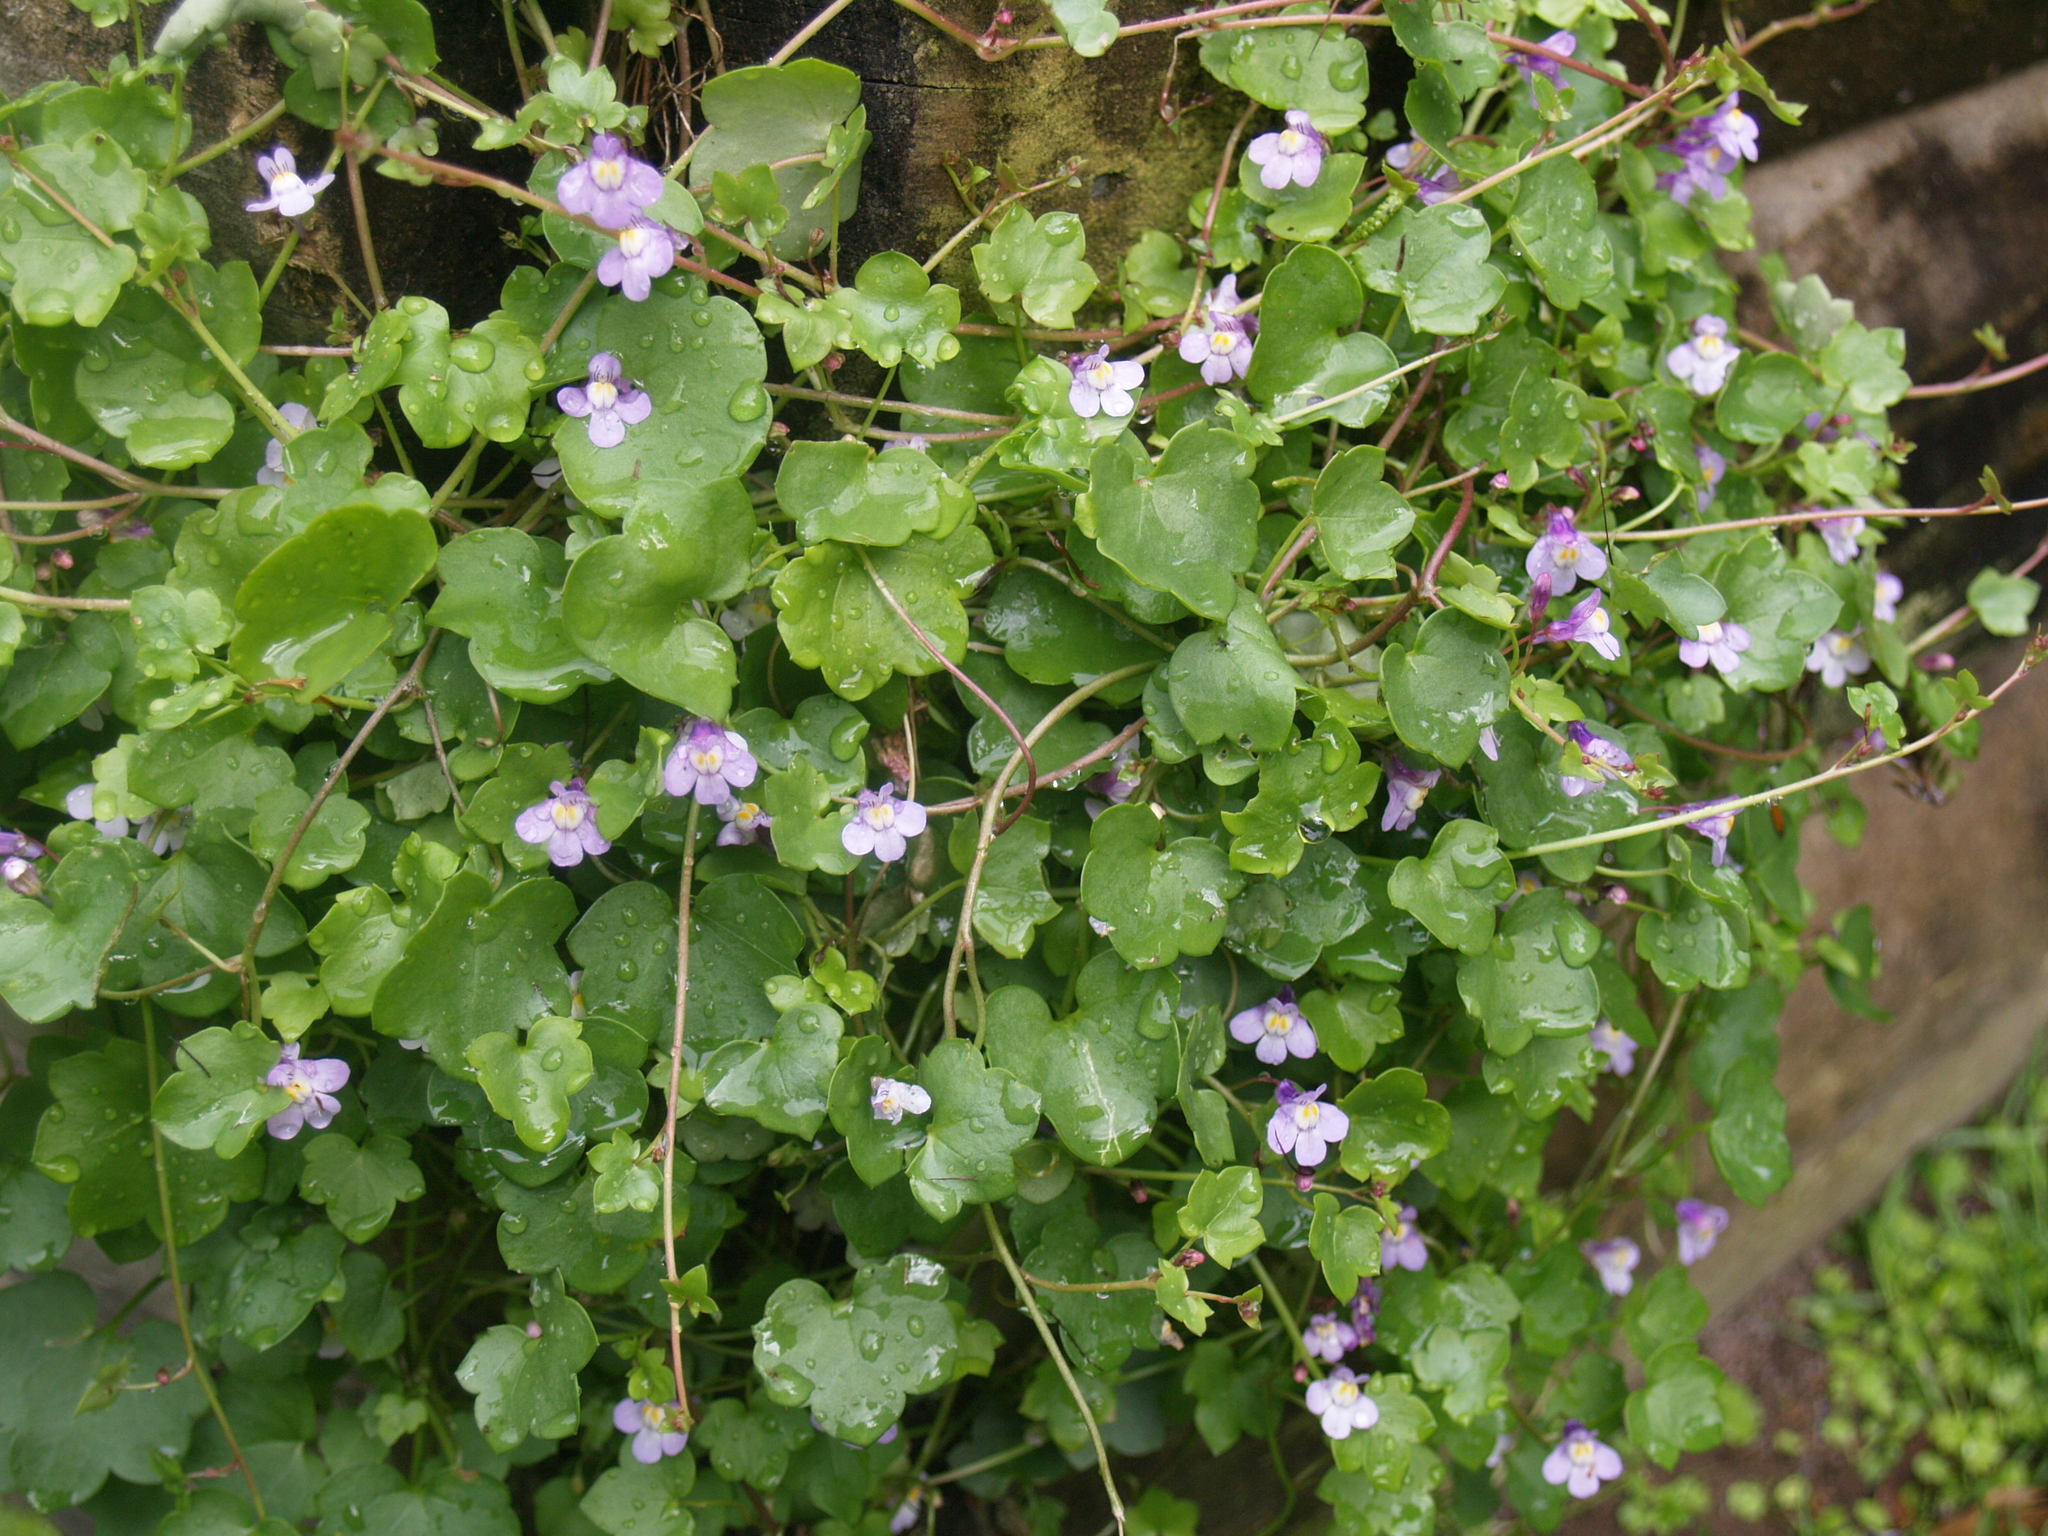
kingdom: Plantae
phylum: Tracheophyta
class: Magnoliopsida
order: Lamiales
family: Plantaginaceae
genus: Cymbalaria
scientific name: Cymbalaria muralis
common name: Ivy-leaved toadflax
